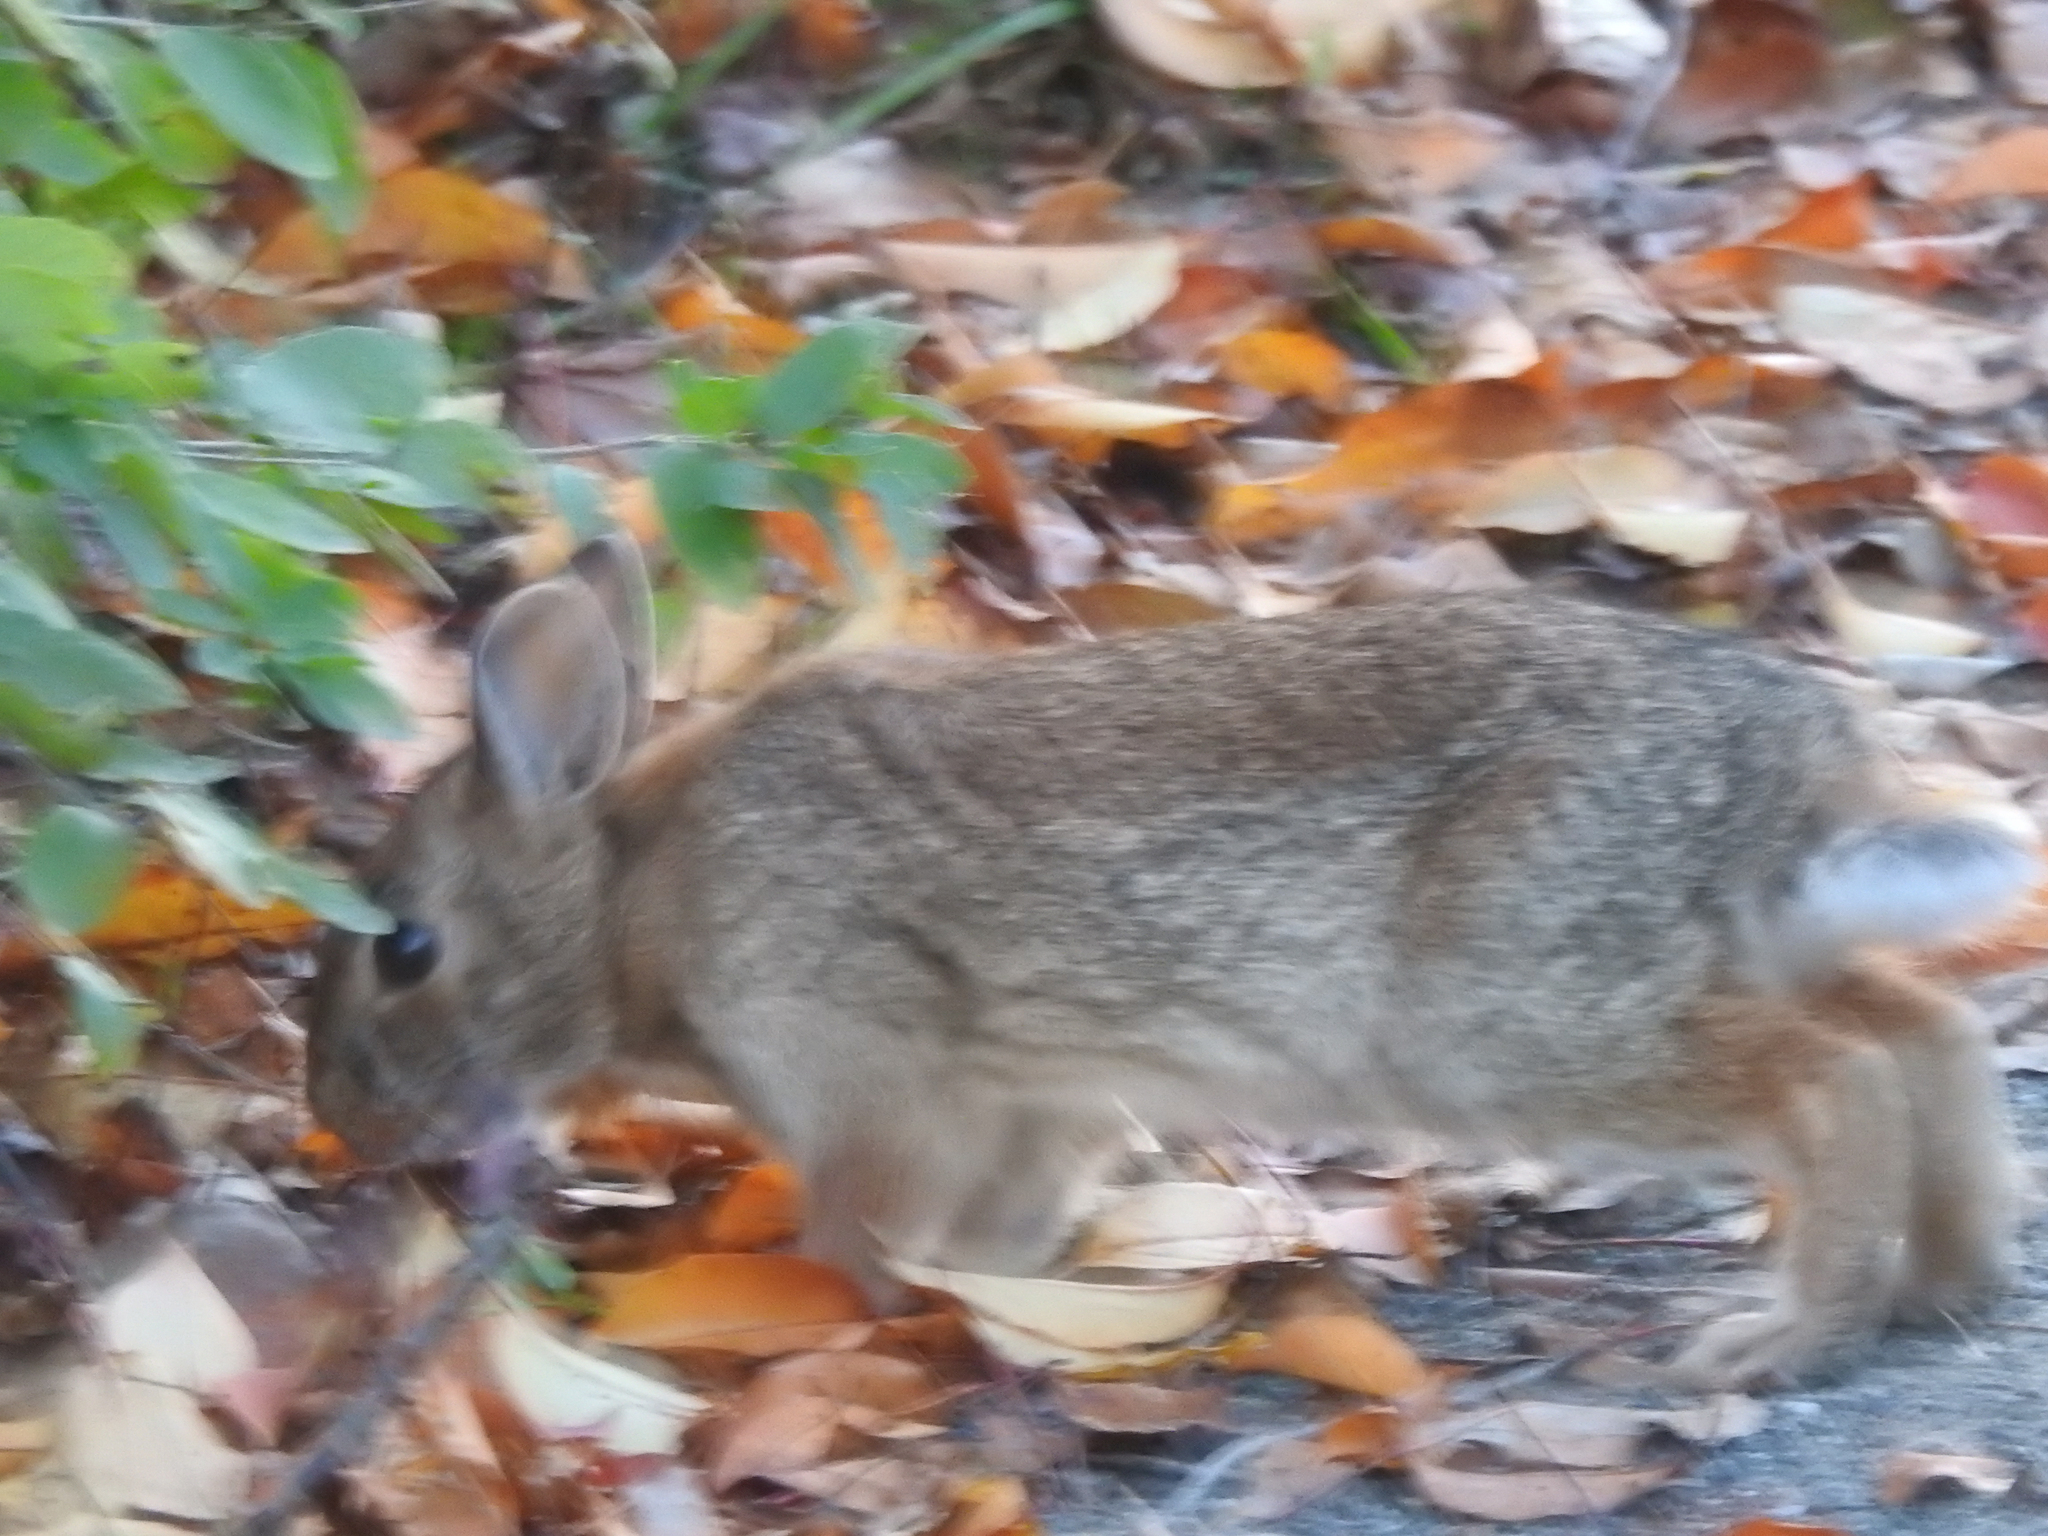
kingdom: Animalia
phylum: Chordata
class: Mammalia
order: Lagomorpha
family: Leporidae
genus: Sylvilagus
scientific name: Sylvilagus floridanus
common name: Eastern cottontail
